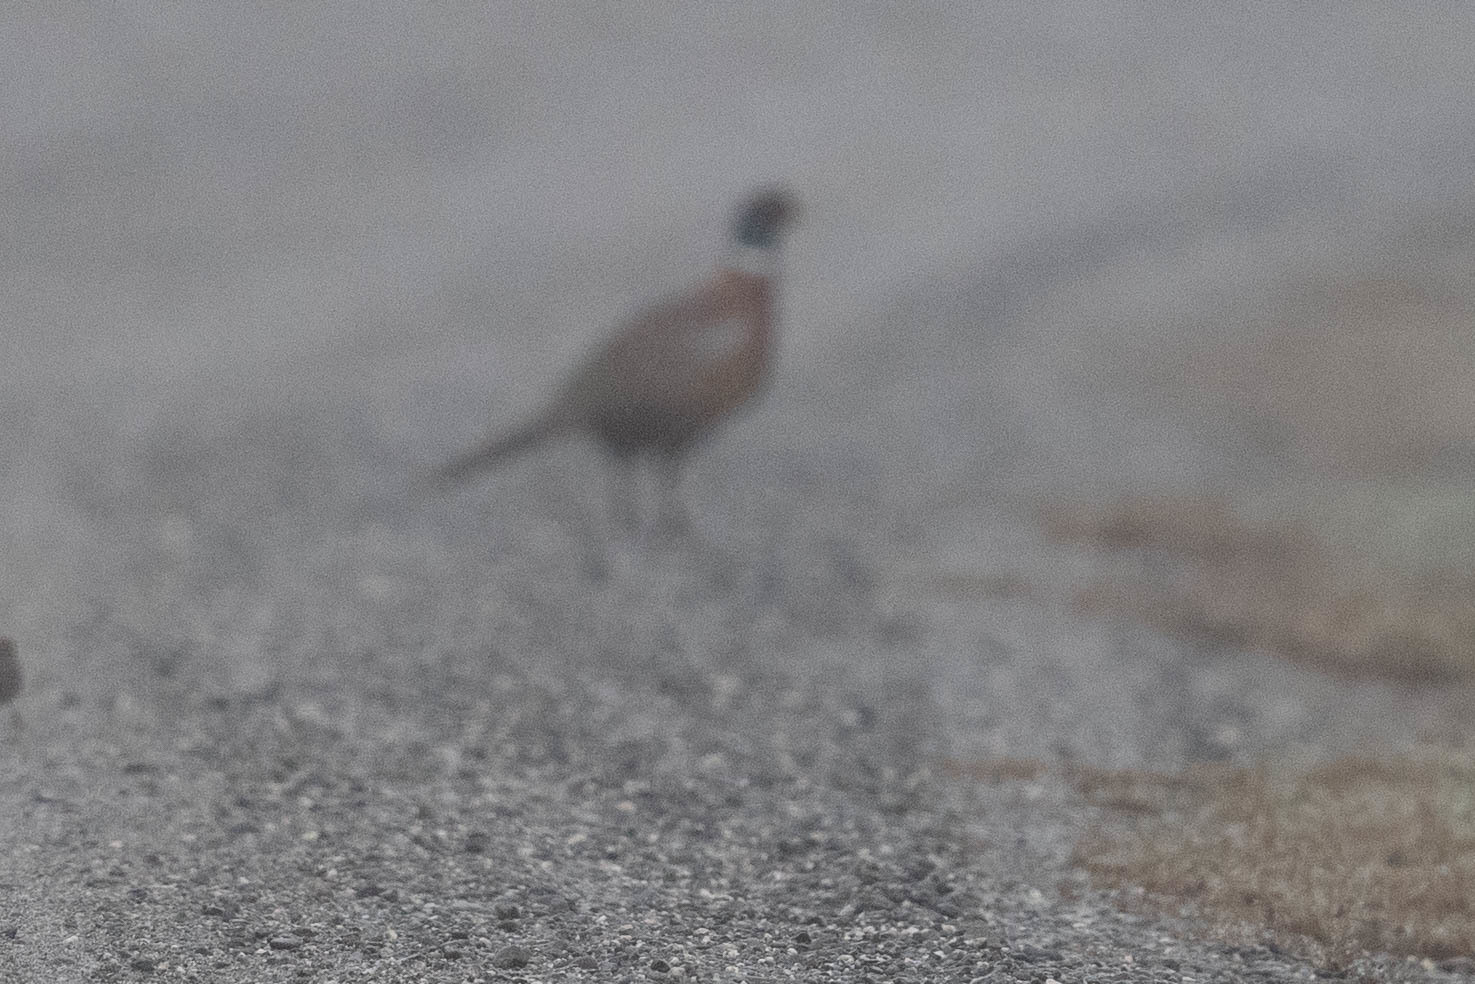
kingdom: Animalia
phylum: Chordata
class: Aves
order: Galliformes
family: Phasianidae
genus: Phasianus
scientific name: Phasianus colchicus
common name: Common pheasant
